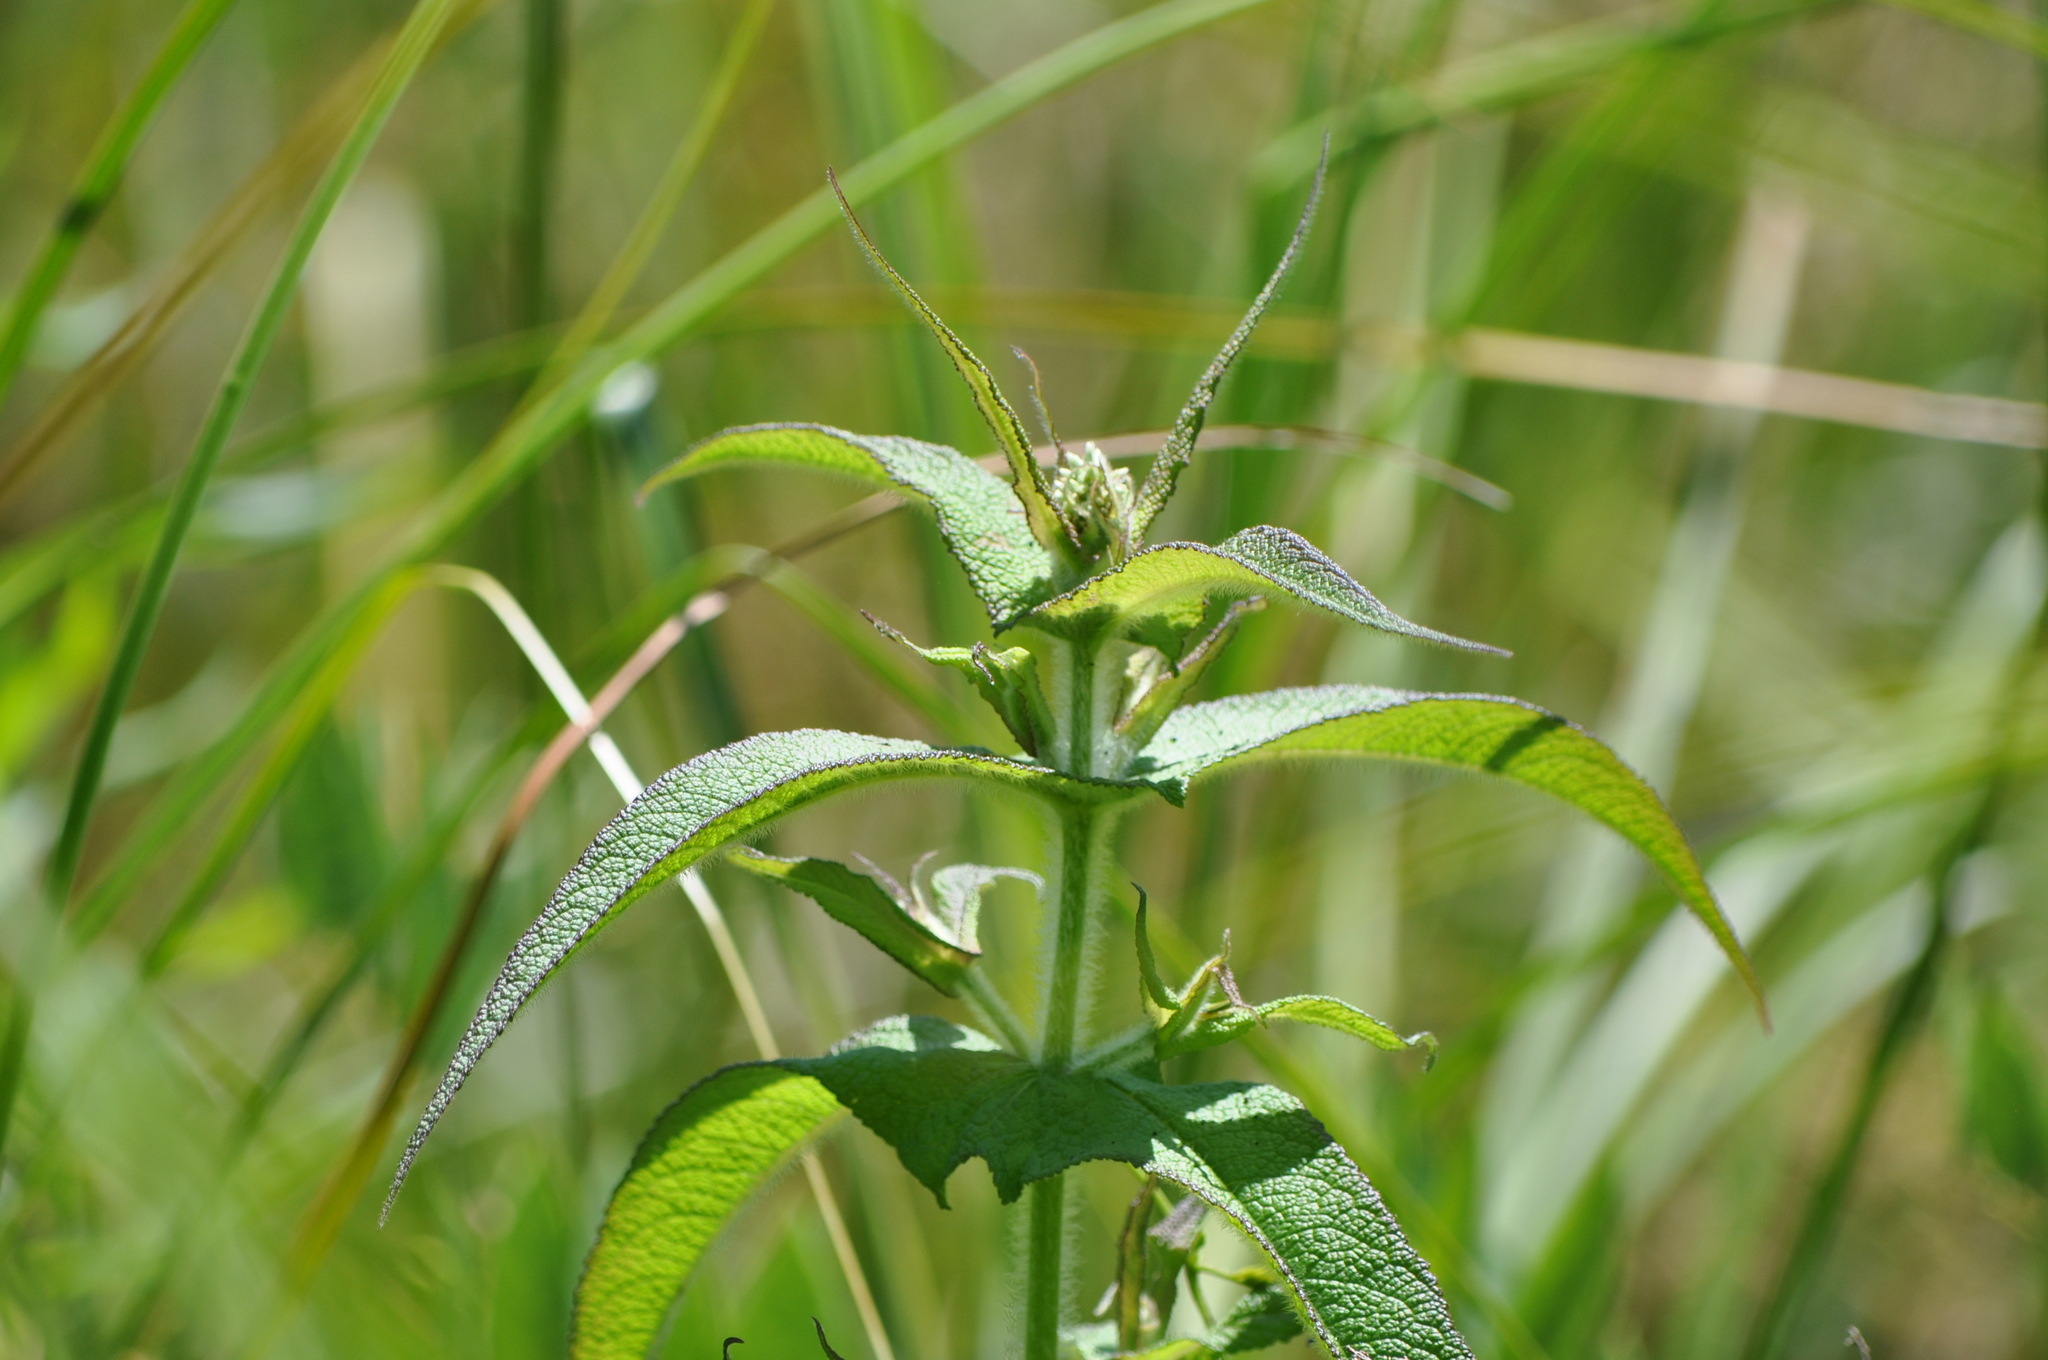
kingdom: Plantae
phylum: Tracheophyta
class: Magnoliopsida
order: Asterales
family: Asteraceae
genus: Eupatorium
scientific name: Eupatorium perfoliatum
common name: Boneset
